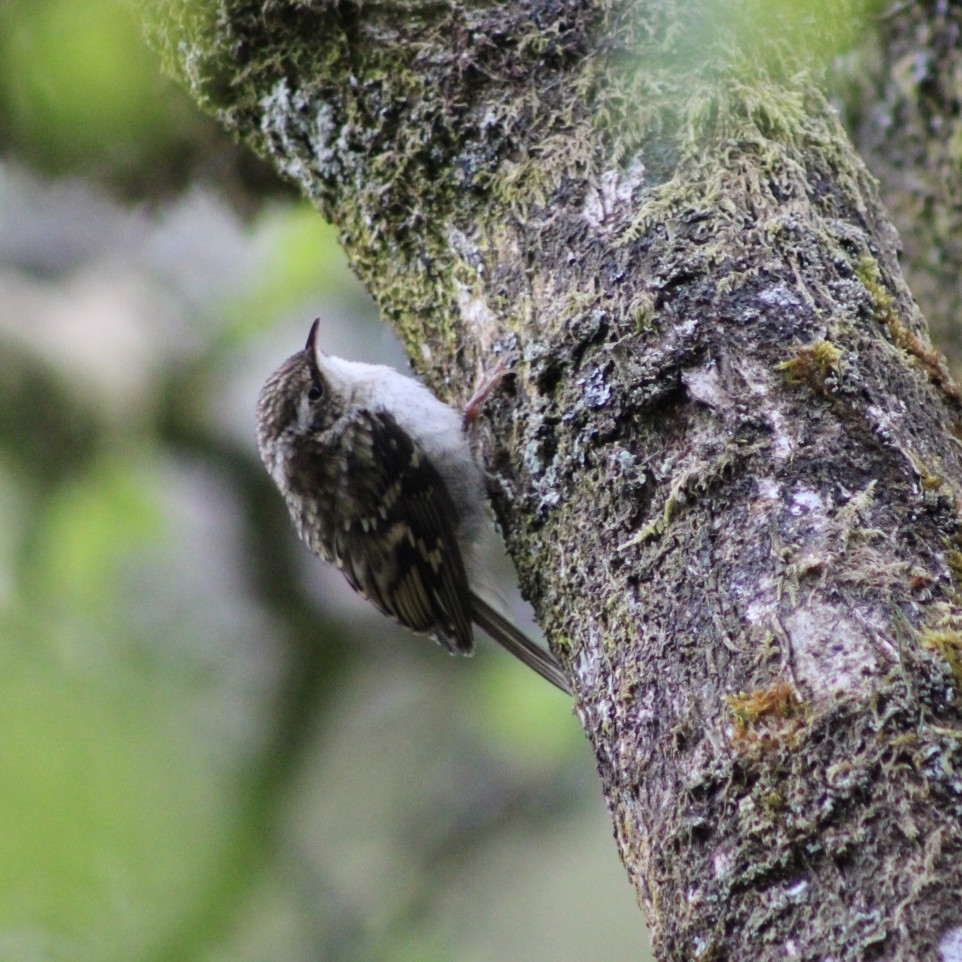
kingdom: Animalia
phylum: Chordata
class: Aves
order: Passeriformes
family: Certhiidae
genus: Certhia
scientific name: Certhia familiaris
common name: Eurasian treecreeper
